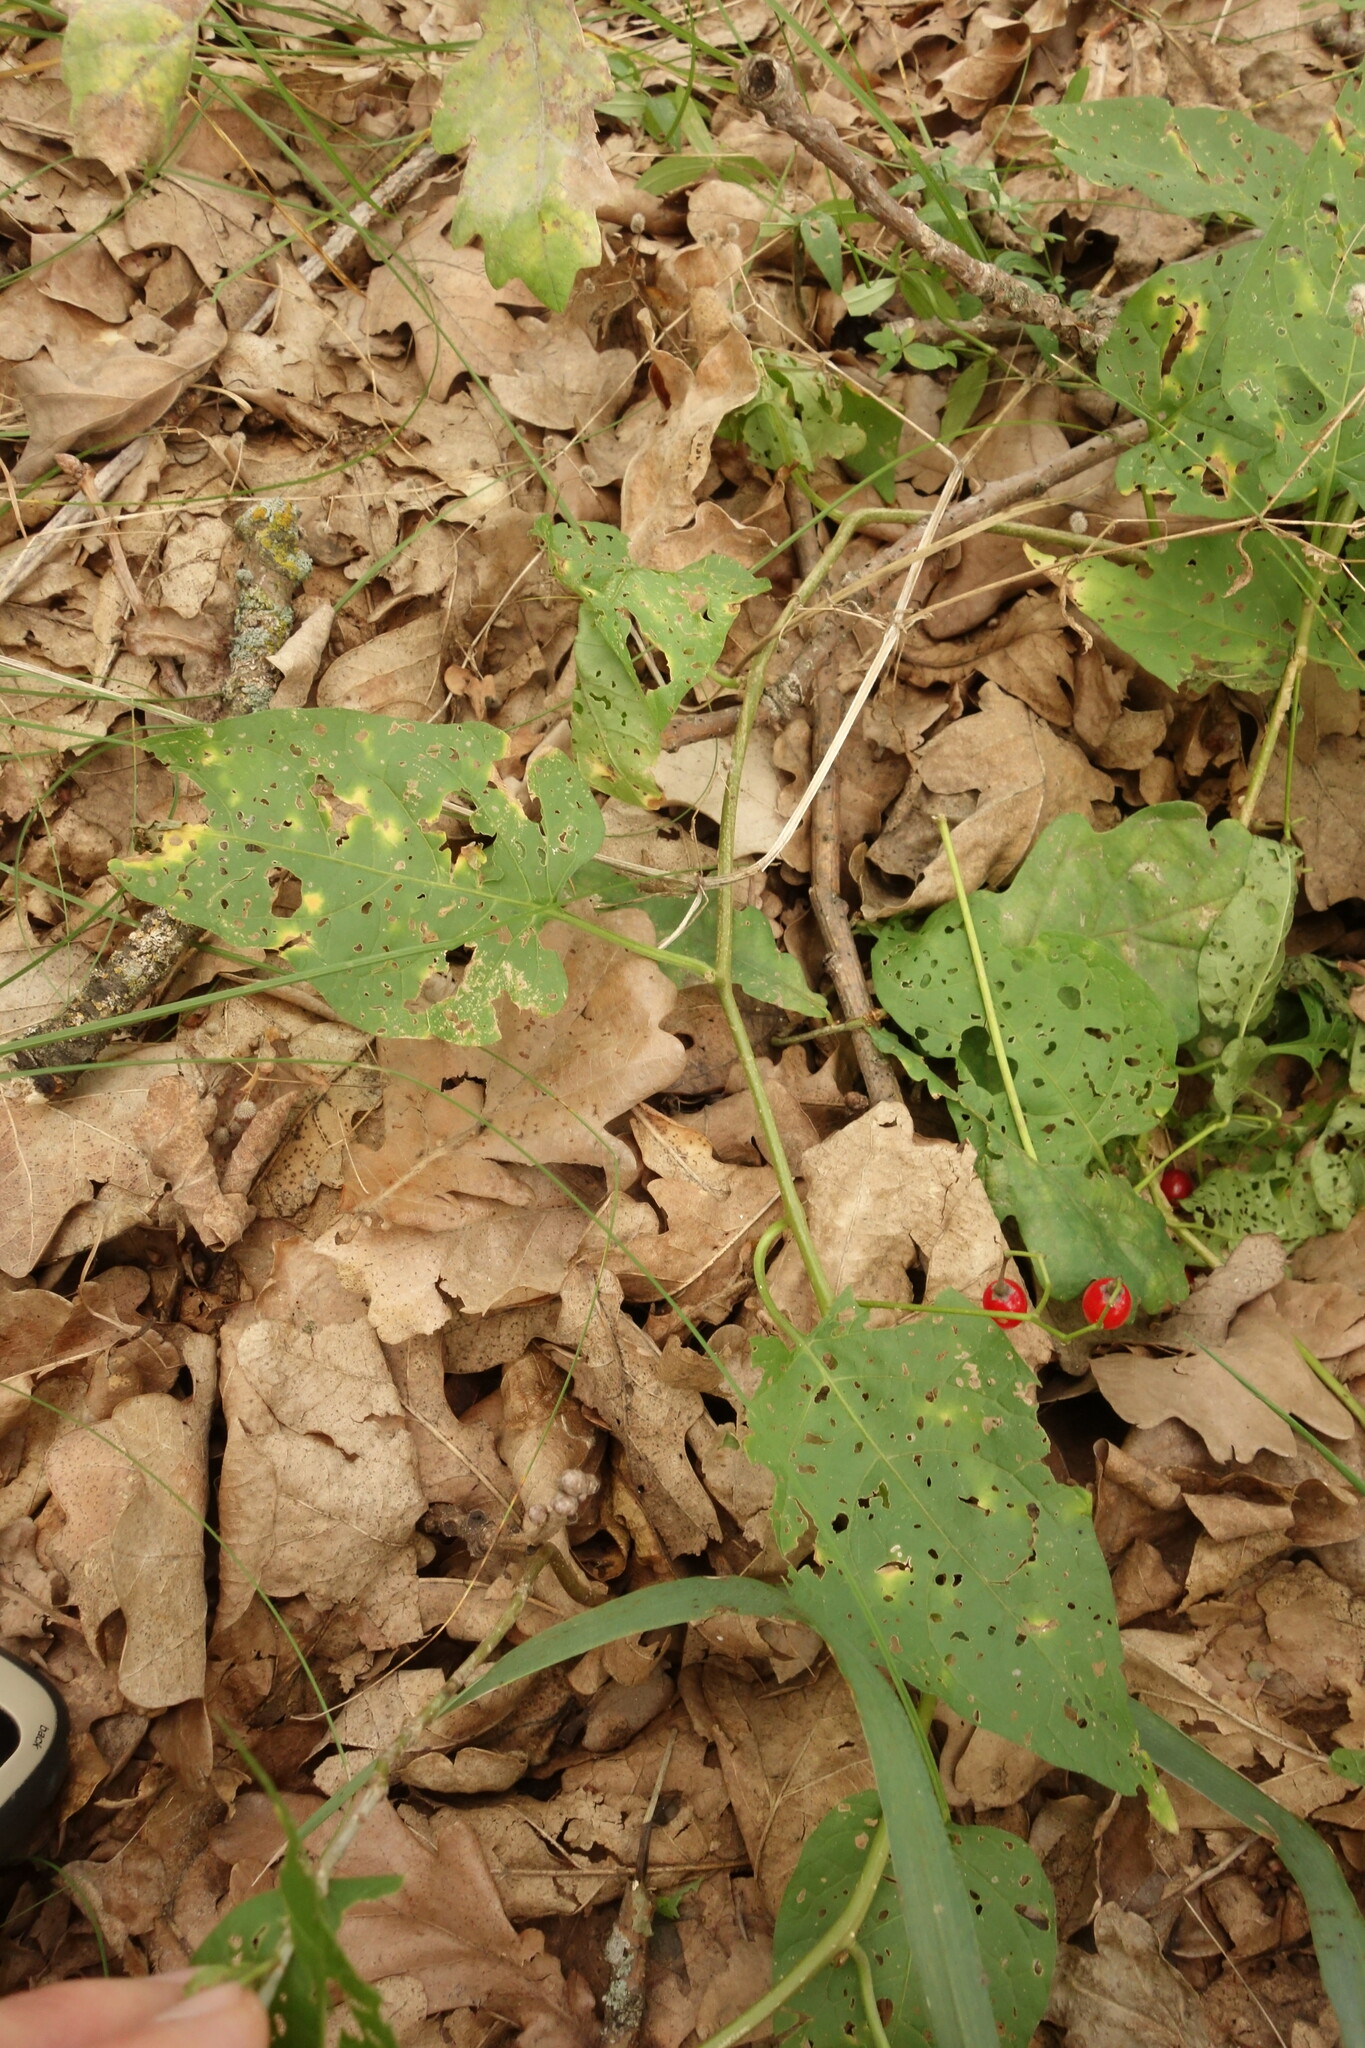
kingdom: Plantae
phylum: Tracheophyta
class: Magnoliopsida
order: Solanales
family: Solanaceae
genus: Solanum
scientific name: Solanum dulcamara
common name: Climbing nightshade
